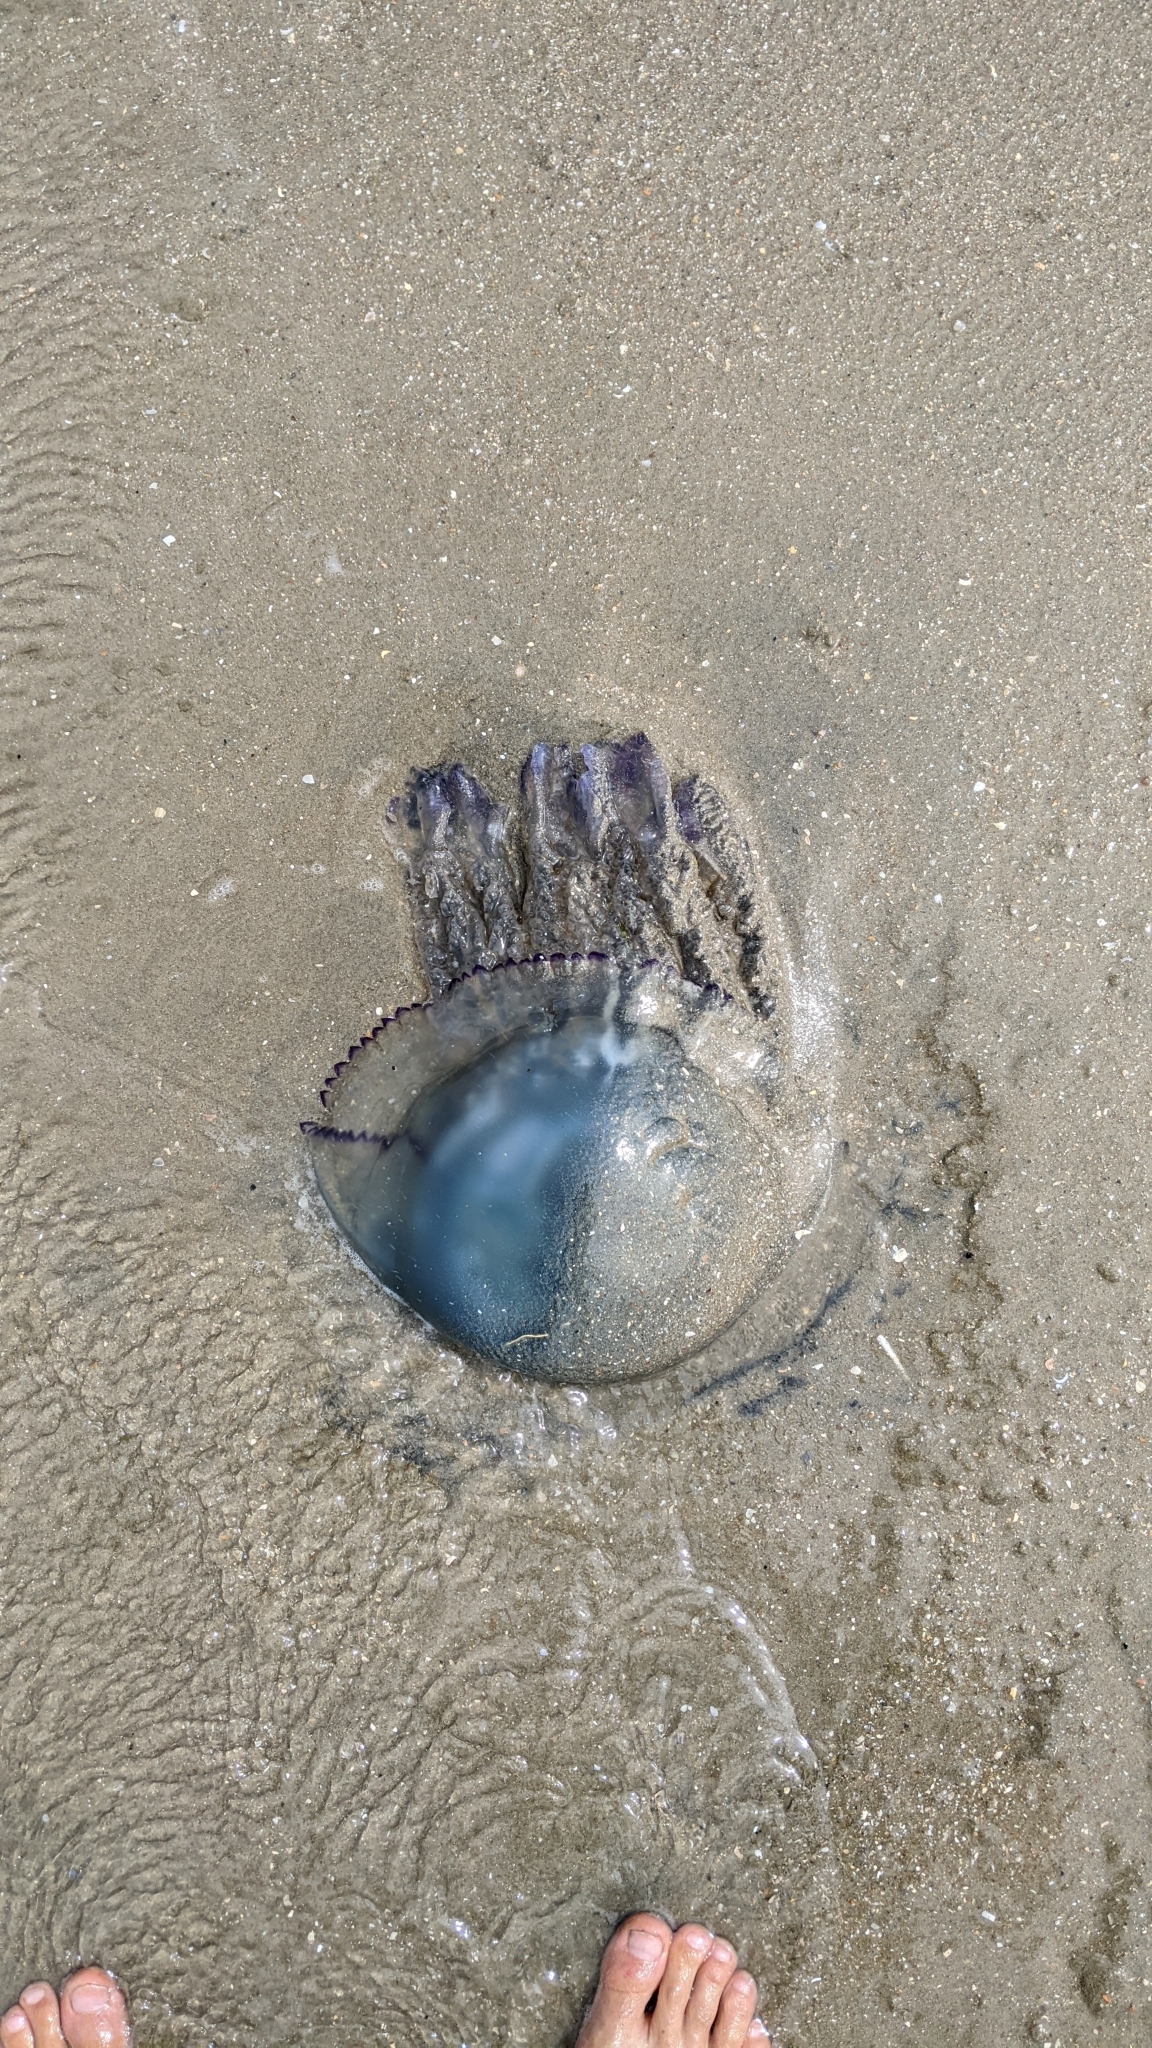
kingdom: Animalia
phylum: Cnidaria
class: Scyphozoa
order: Rhizostomeae
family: Rhizostomatidae
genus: Rhizostoma
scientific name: Rhizostoma octopus
